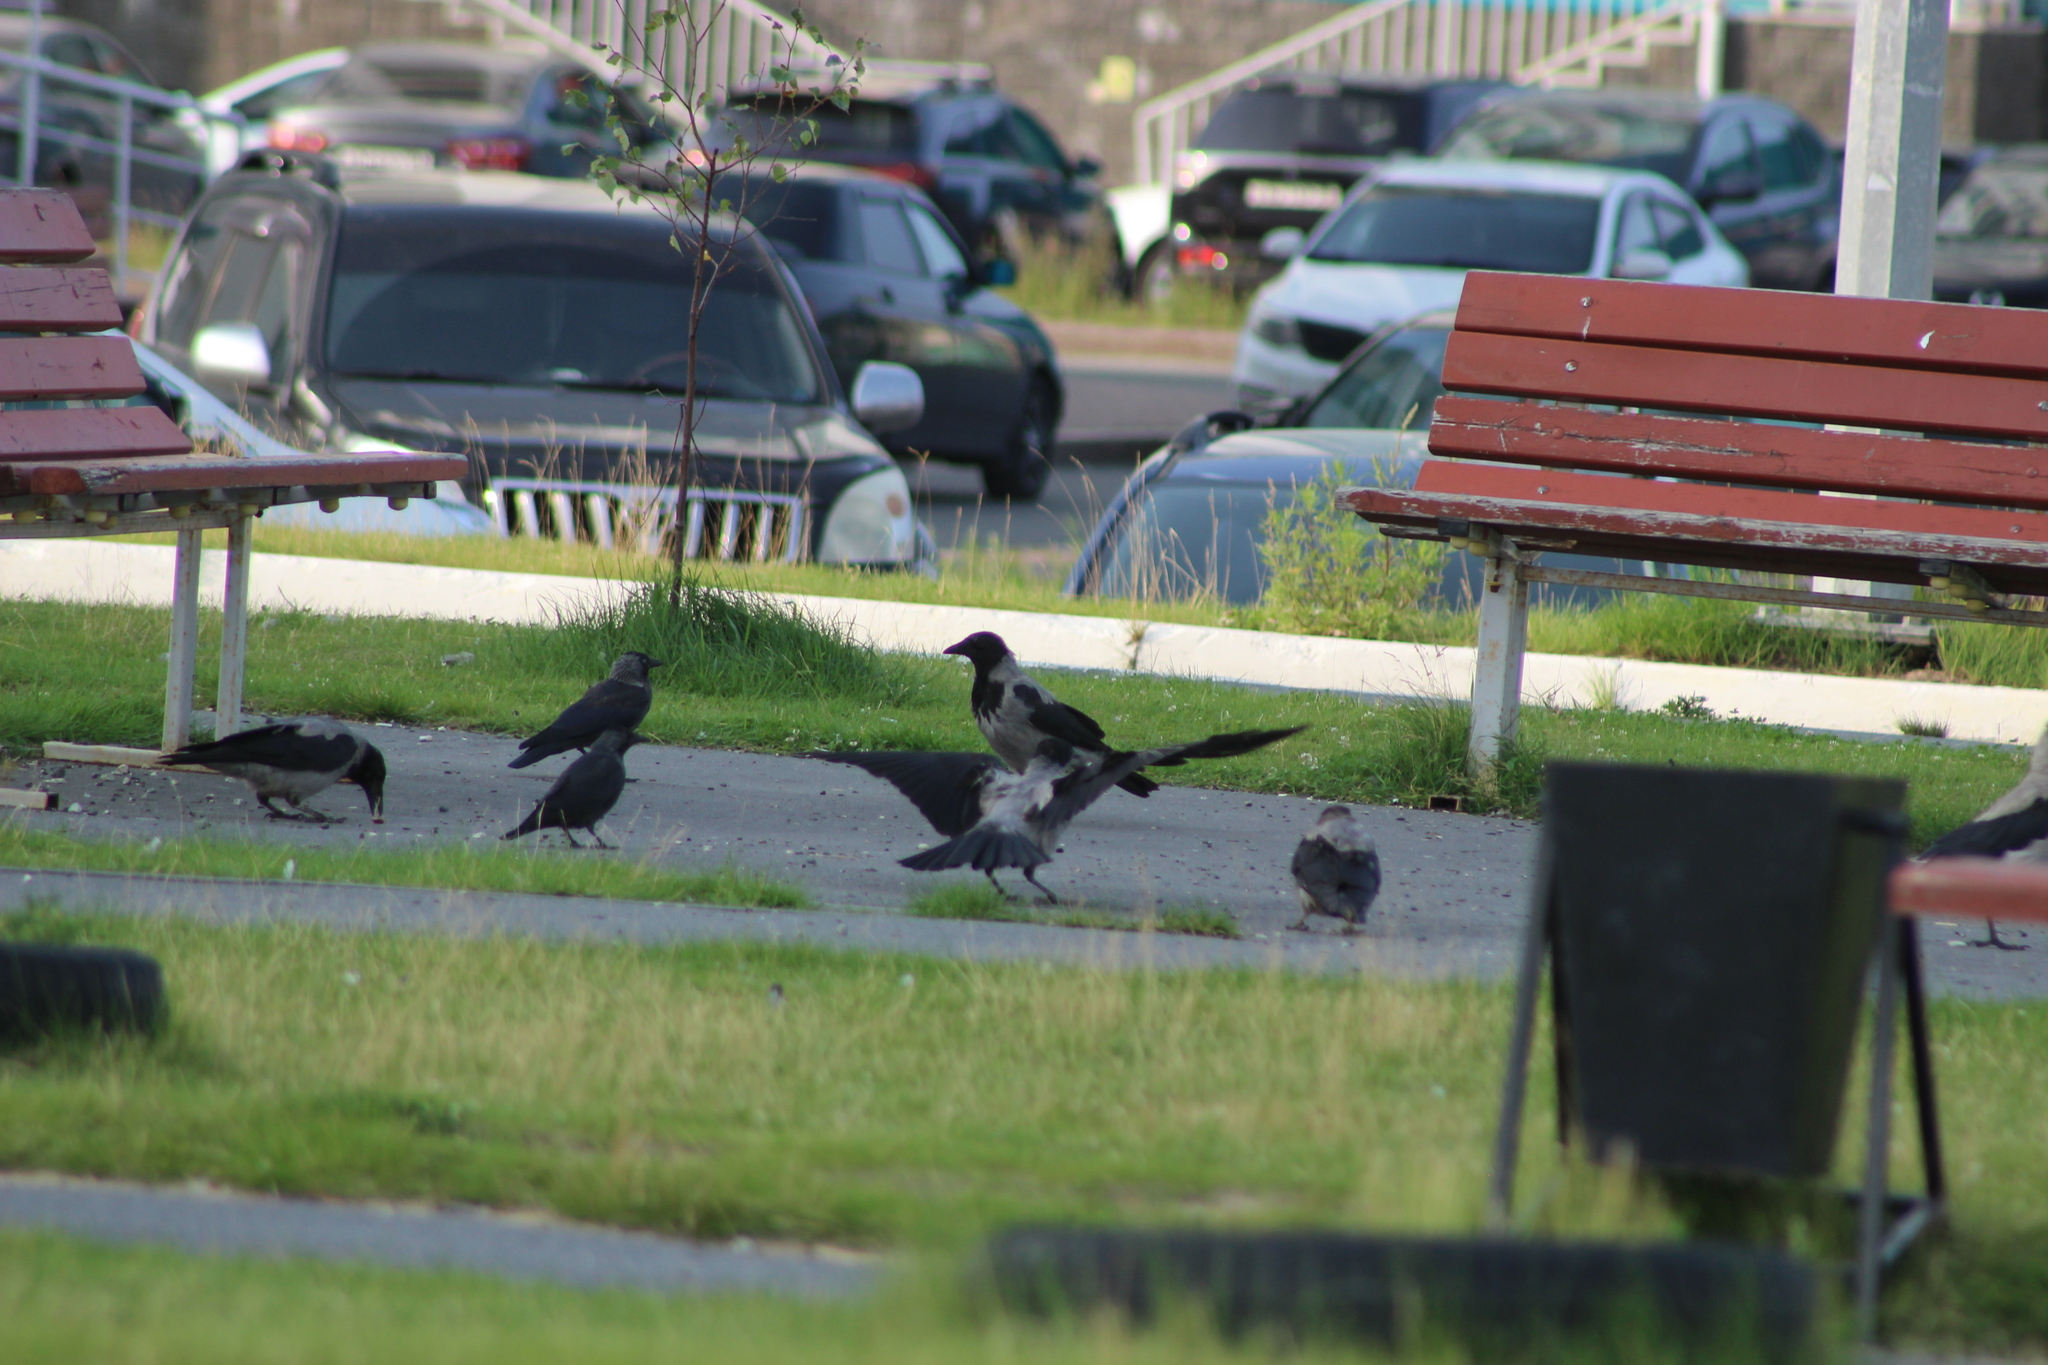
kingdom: Animalia
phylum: Chordata
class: Aves
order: Passeriformes
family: Corvidae
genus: Corvus
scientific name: Corvus cornix
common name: Hooded crow
